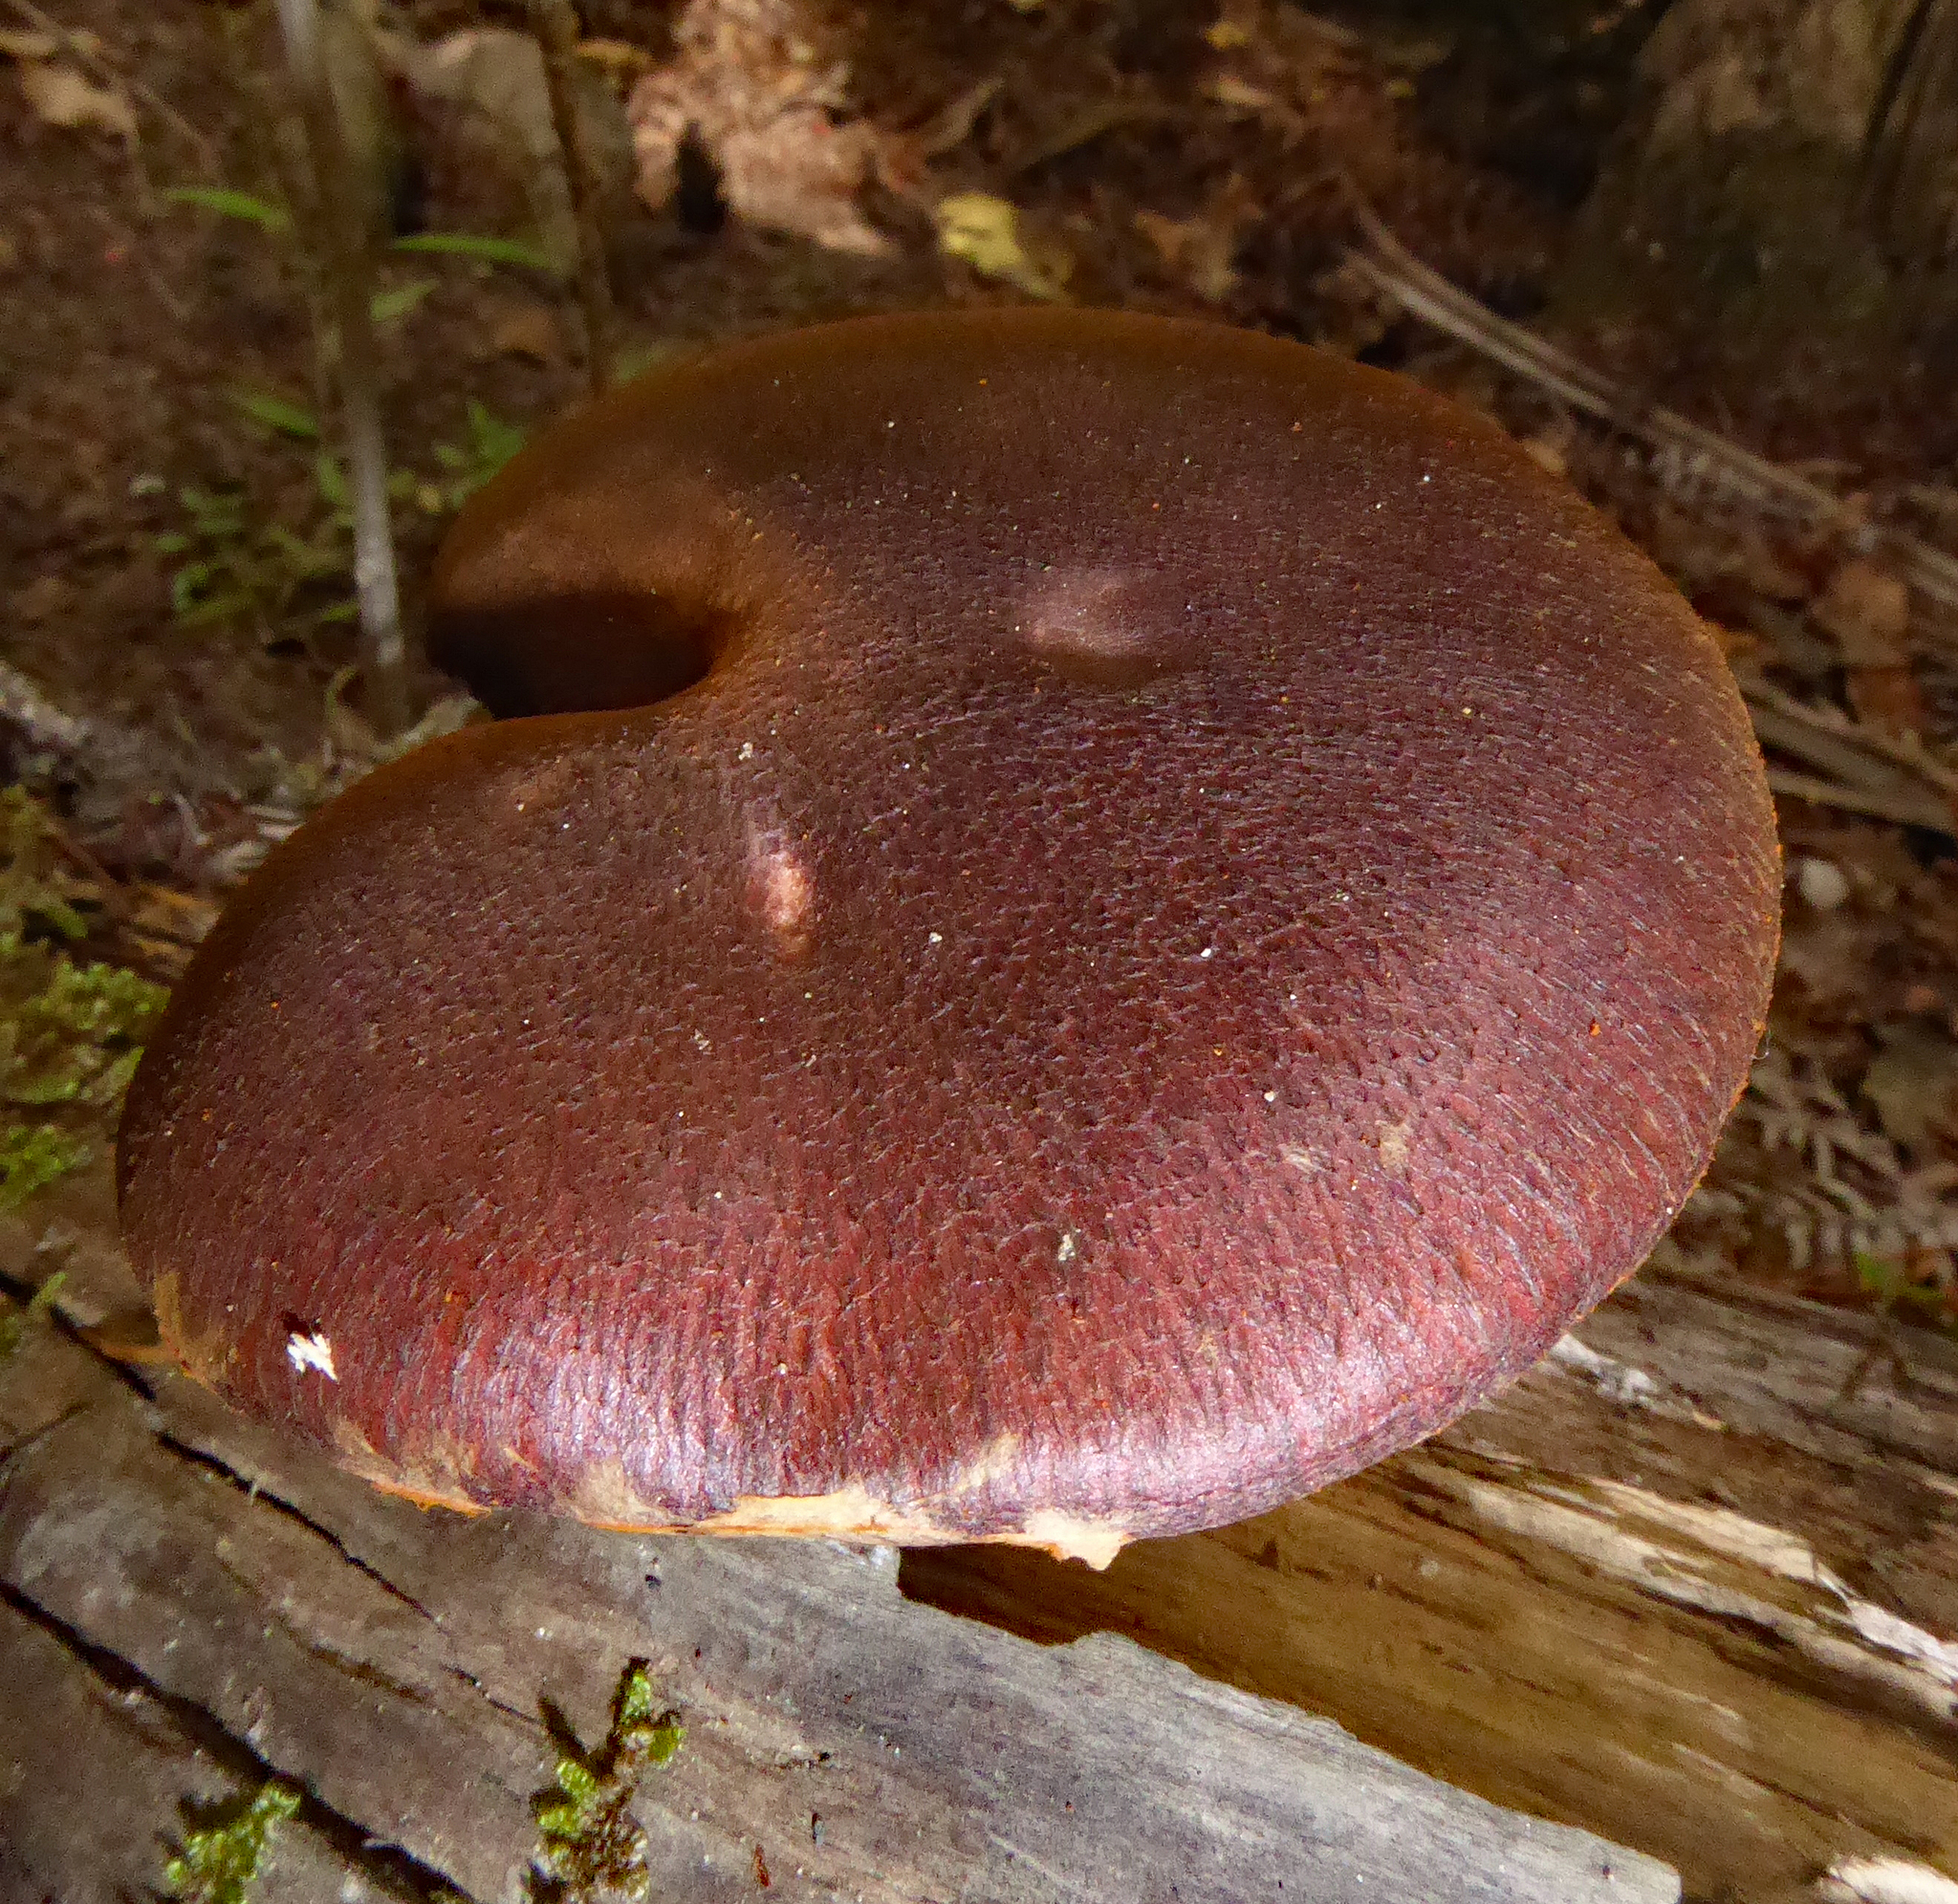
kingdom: Fungi
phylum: Basidiomycota
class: Agaricomycetes
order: Agaricales
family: Hymenogastraceae
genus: Gymnopilus
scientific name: Gymnopilus purpuratus
